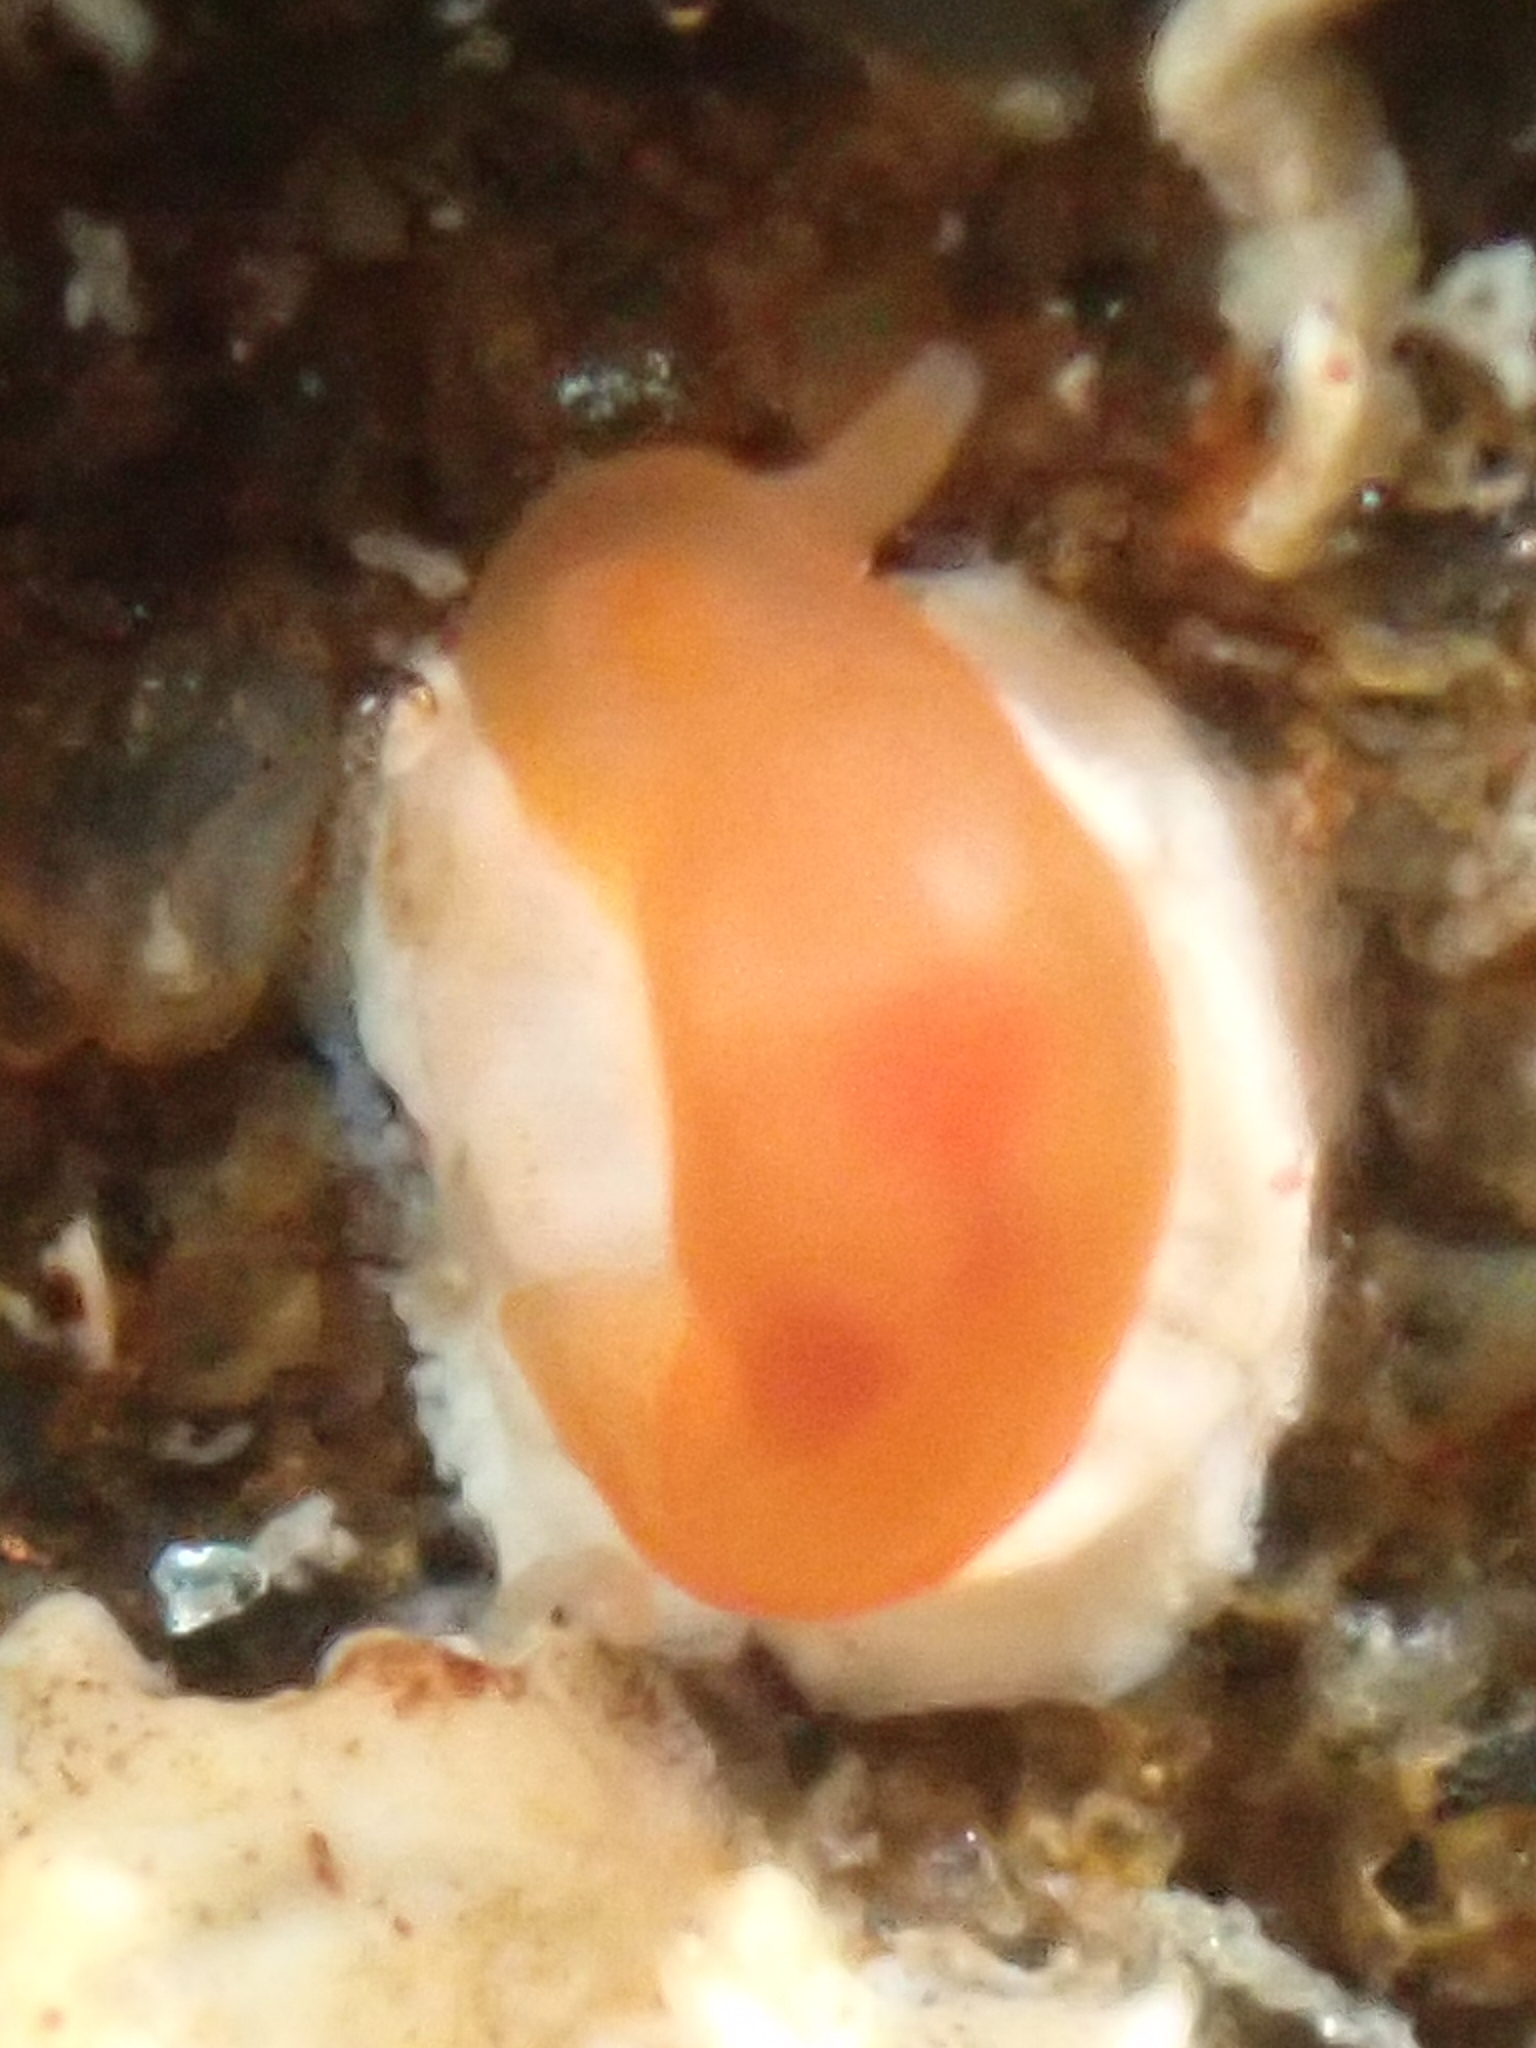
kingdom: Animalia
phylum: Mollusca
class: Gastropoda
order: Nudibranchia
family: Okadaiidae
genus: Vayssierea
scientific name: Vayssierea felis
